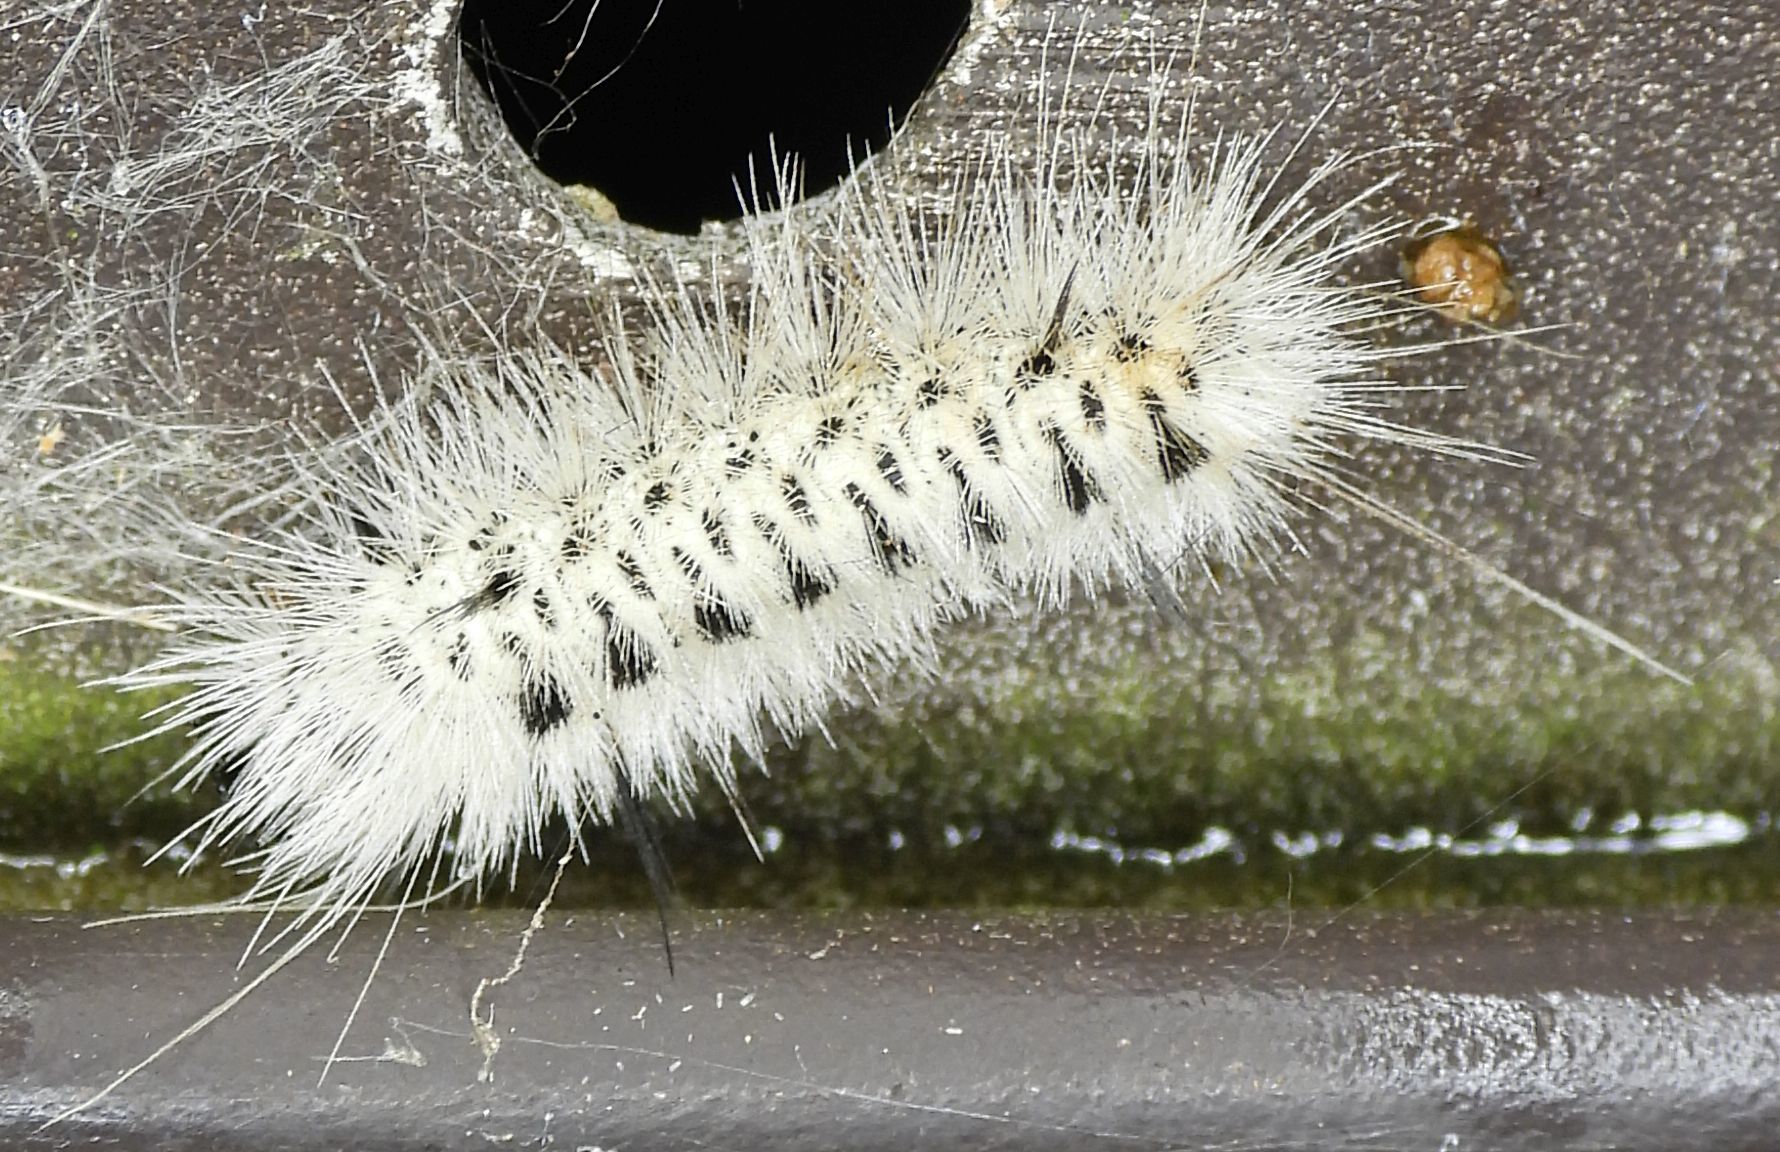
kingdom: Animalia
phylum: Arthropoda
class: Insecta
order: Lepidoptera
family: Erebidae
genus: Lophocampa
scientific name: Lophocampa caryae
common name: Hickory tussock moth
